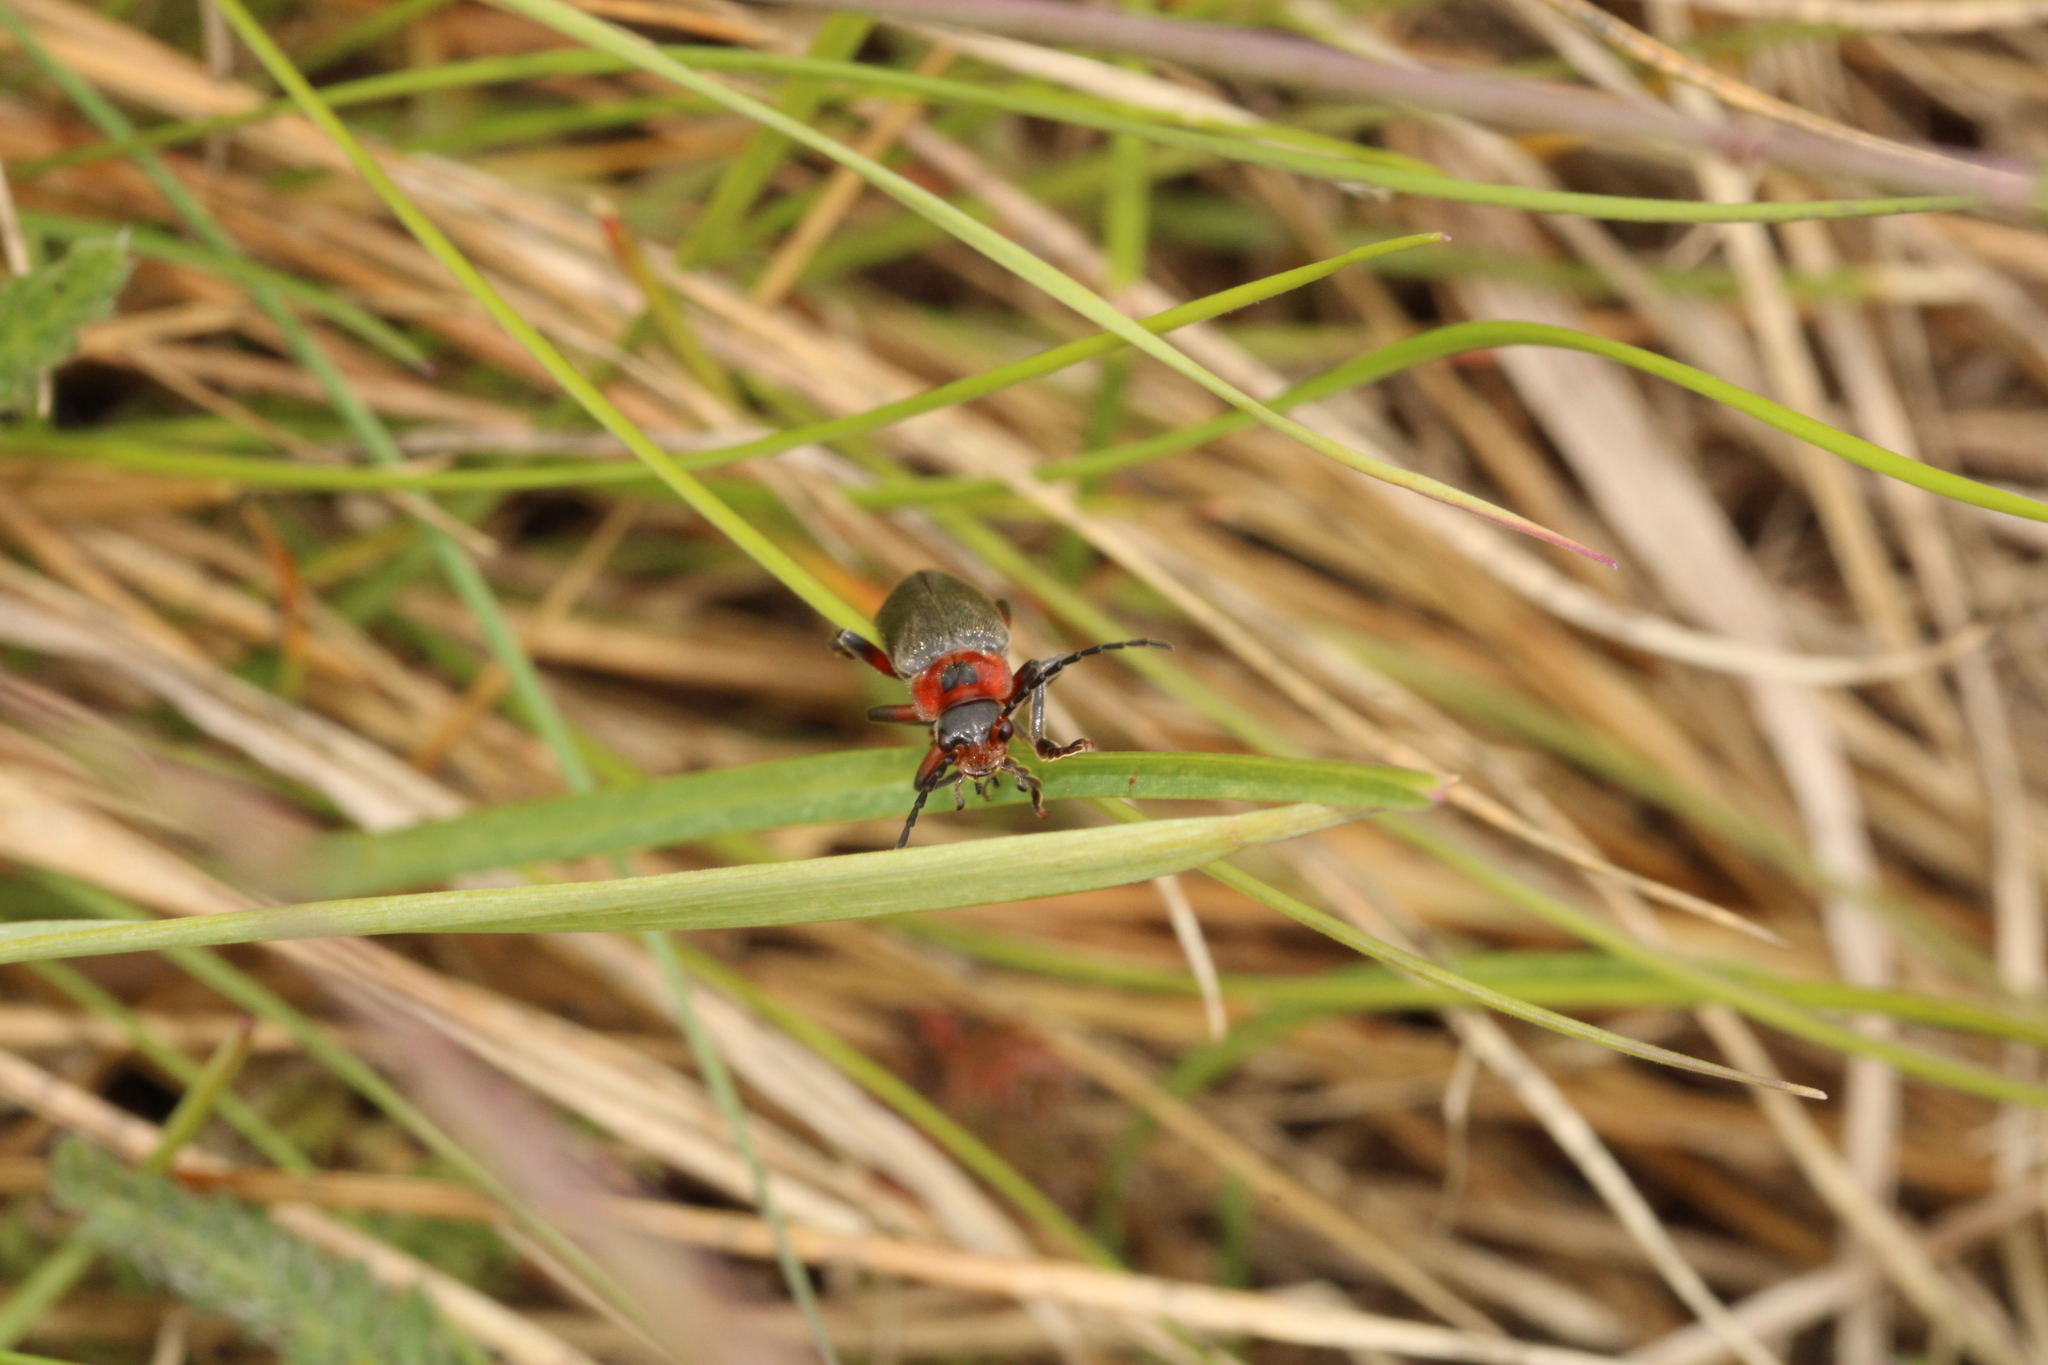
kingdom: Animalia
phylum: Arthropoda
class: Insecta
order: Coleoptera
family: Cantharidae
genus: Cantharis
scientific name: Cantharis rustica
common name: Soldier beetle
